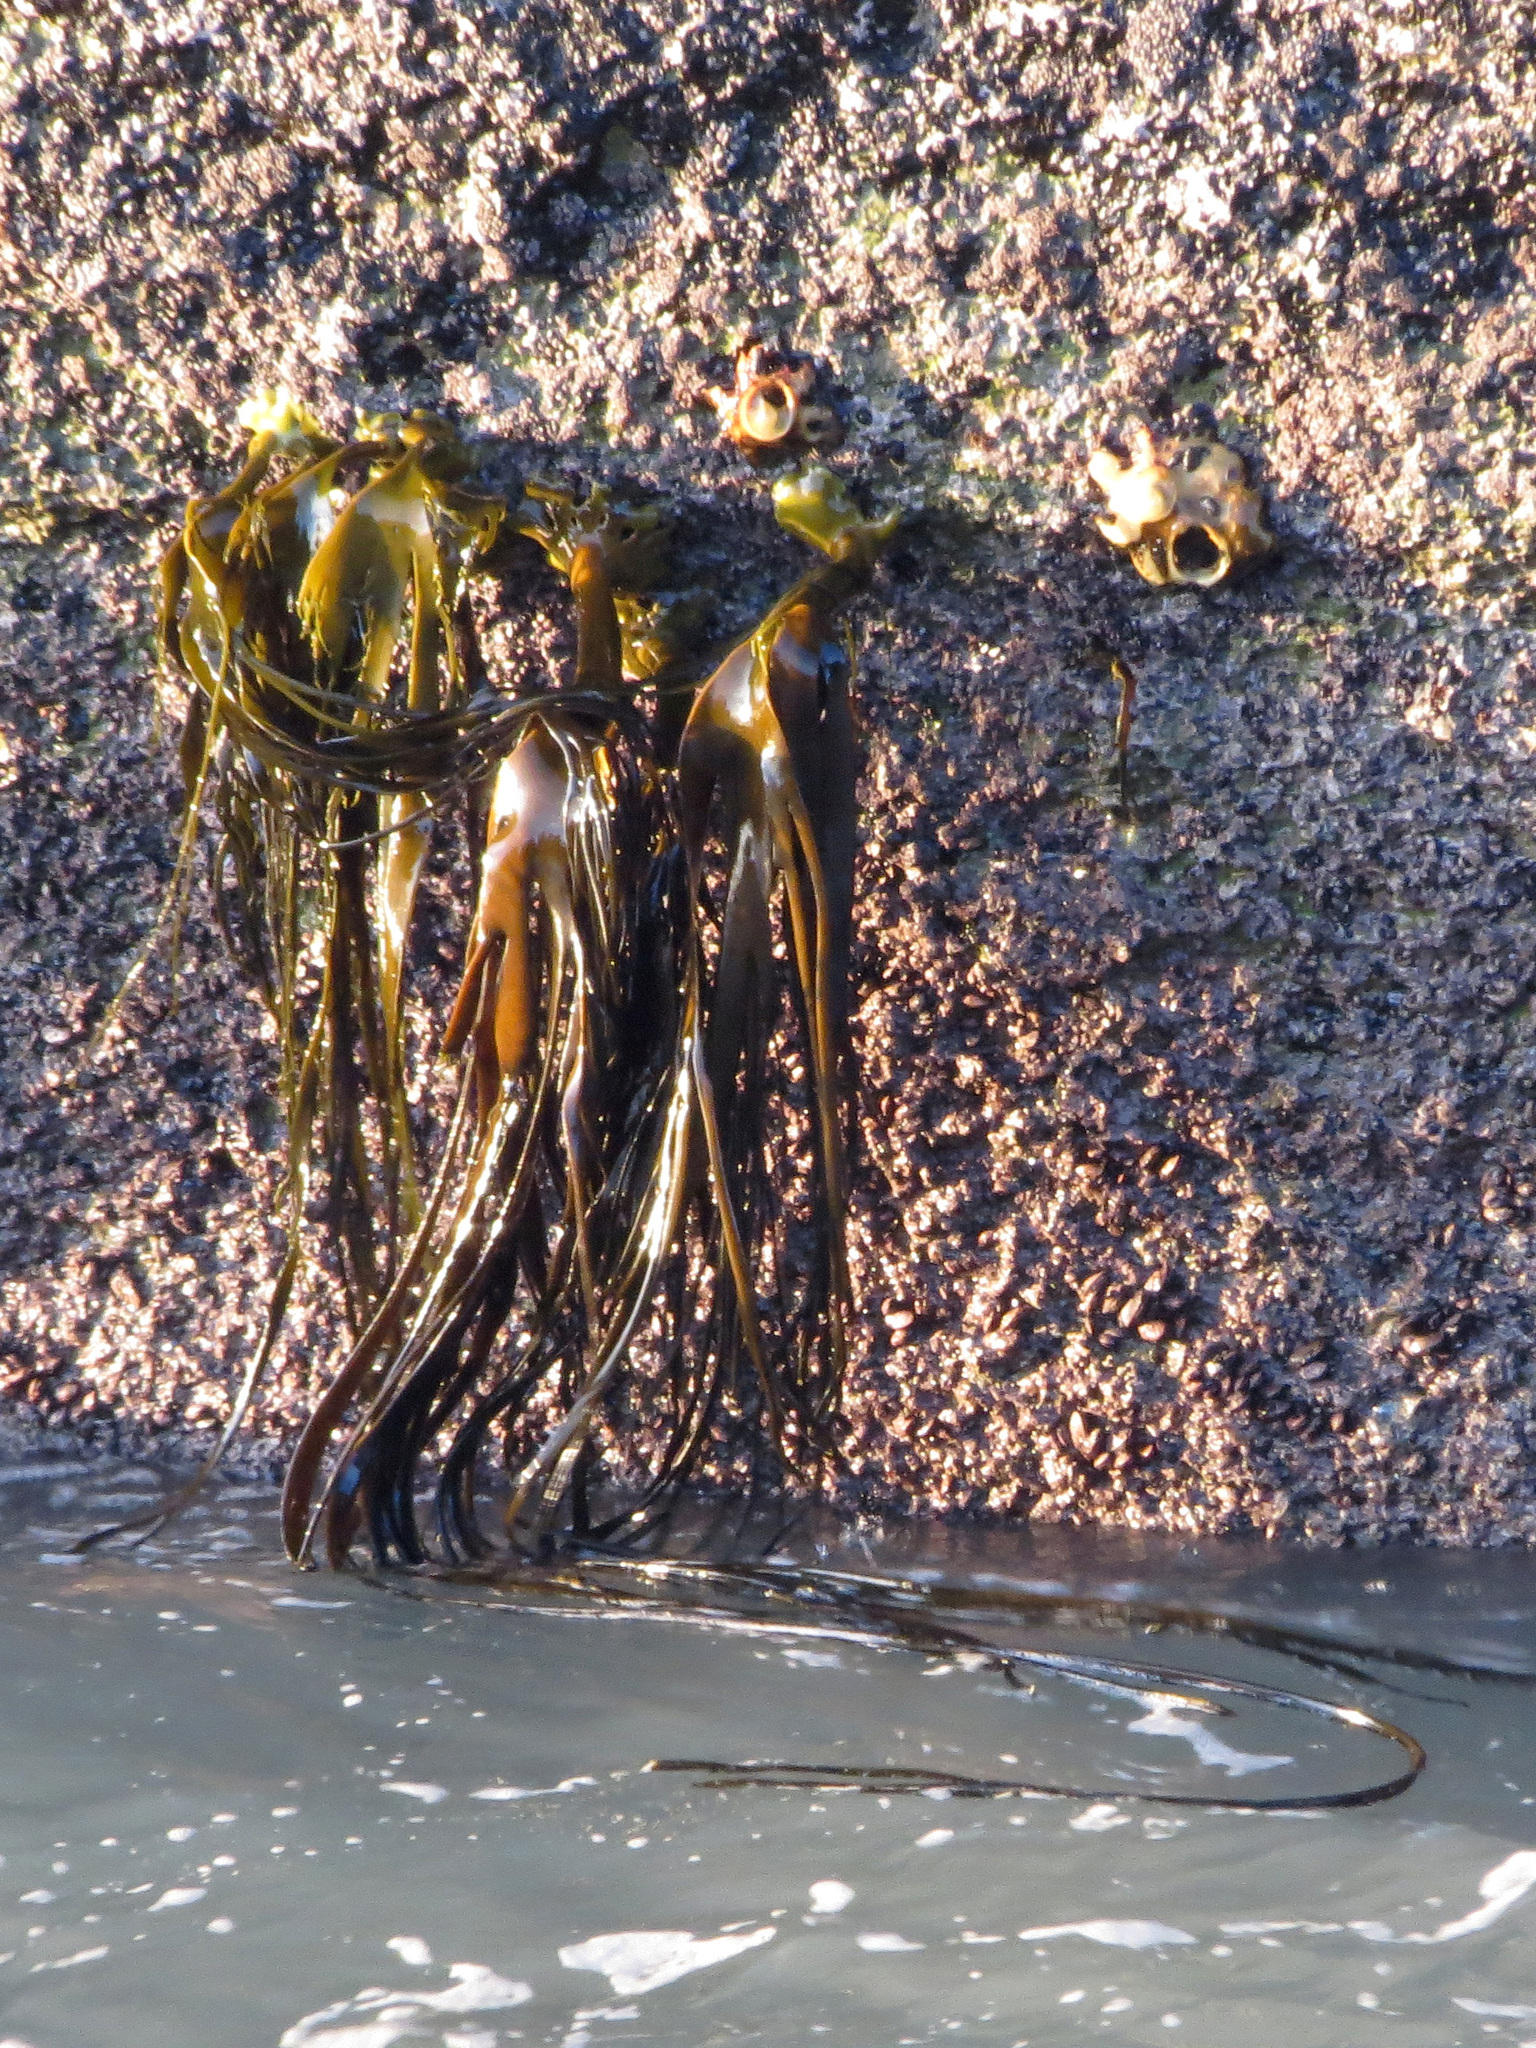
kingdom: Chromista
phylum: Ochrophyta
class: Phaeophyceae
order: Fucales
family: Durvillaeaceae
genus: Durvillaea
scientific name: Durvillaea antarctica
